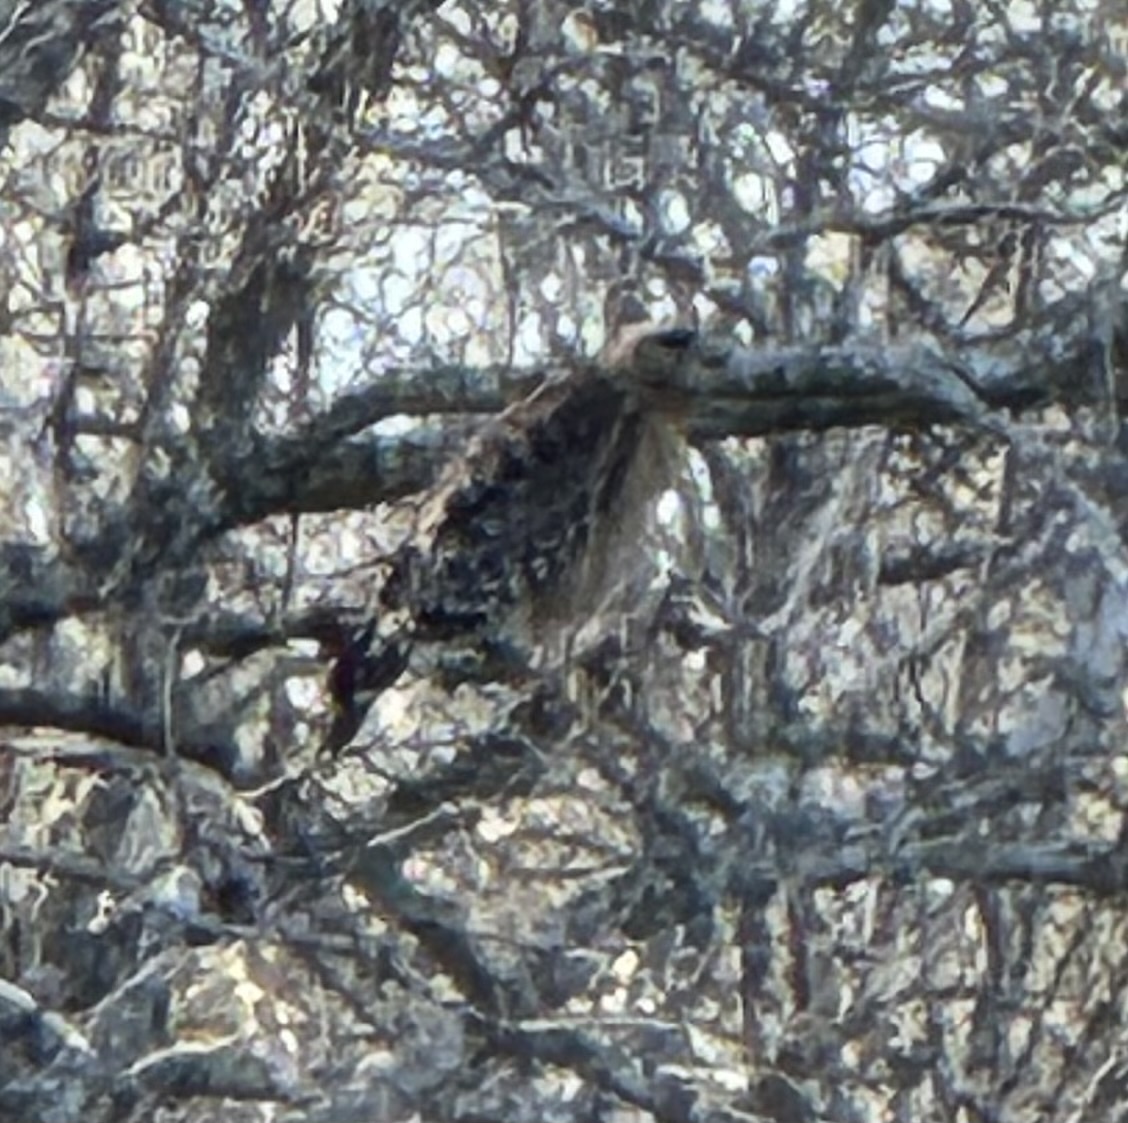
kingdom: Animalia
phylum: Chordata
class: Aves
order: Accipitriformes
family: Accipitridae
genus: Buteo
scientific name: Buteo lineatus
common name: Red-shouldered hawk
